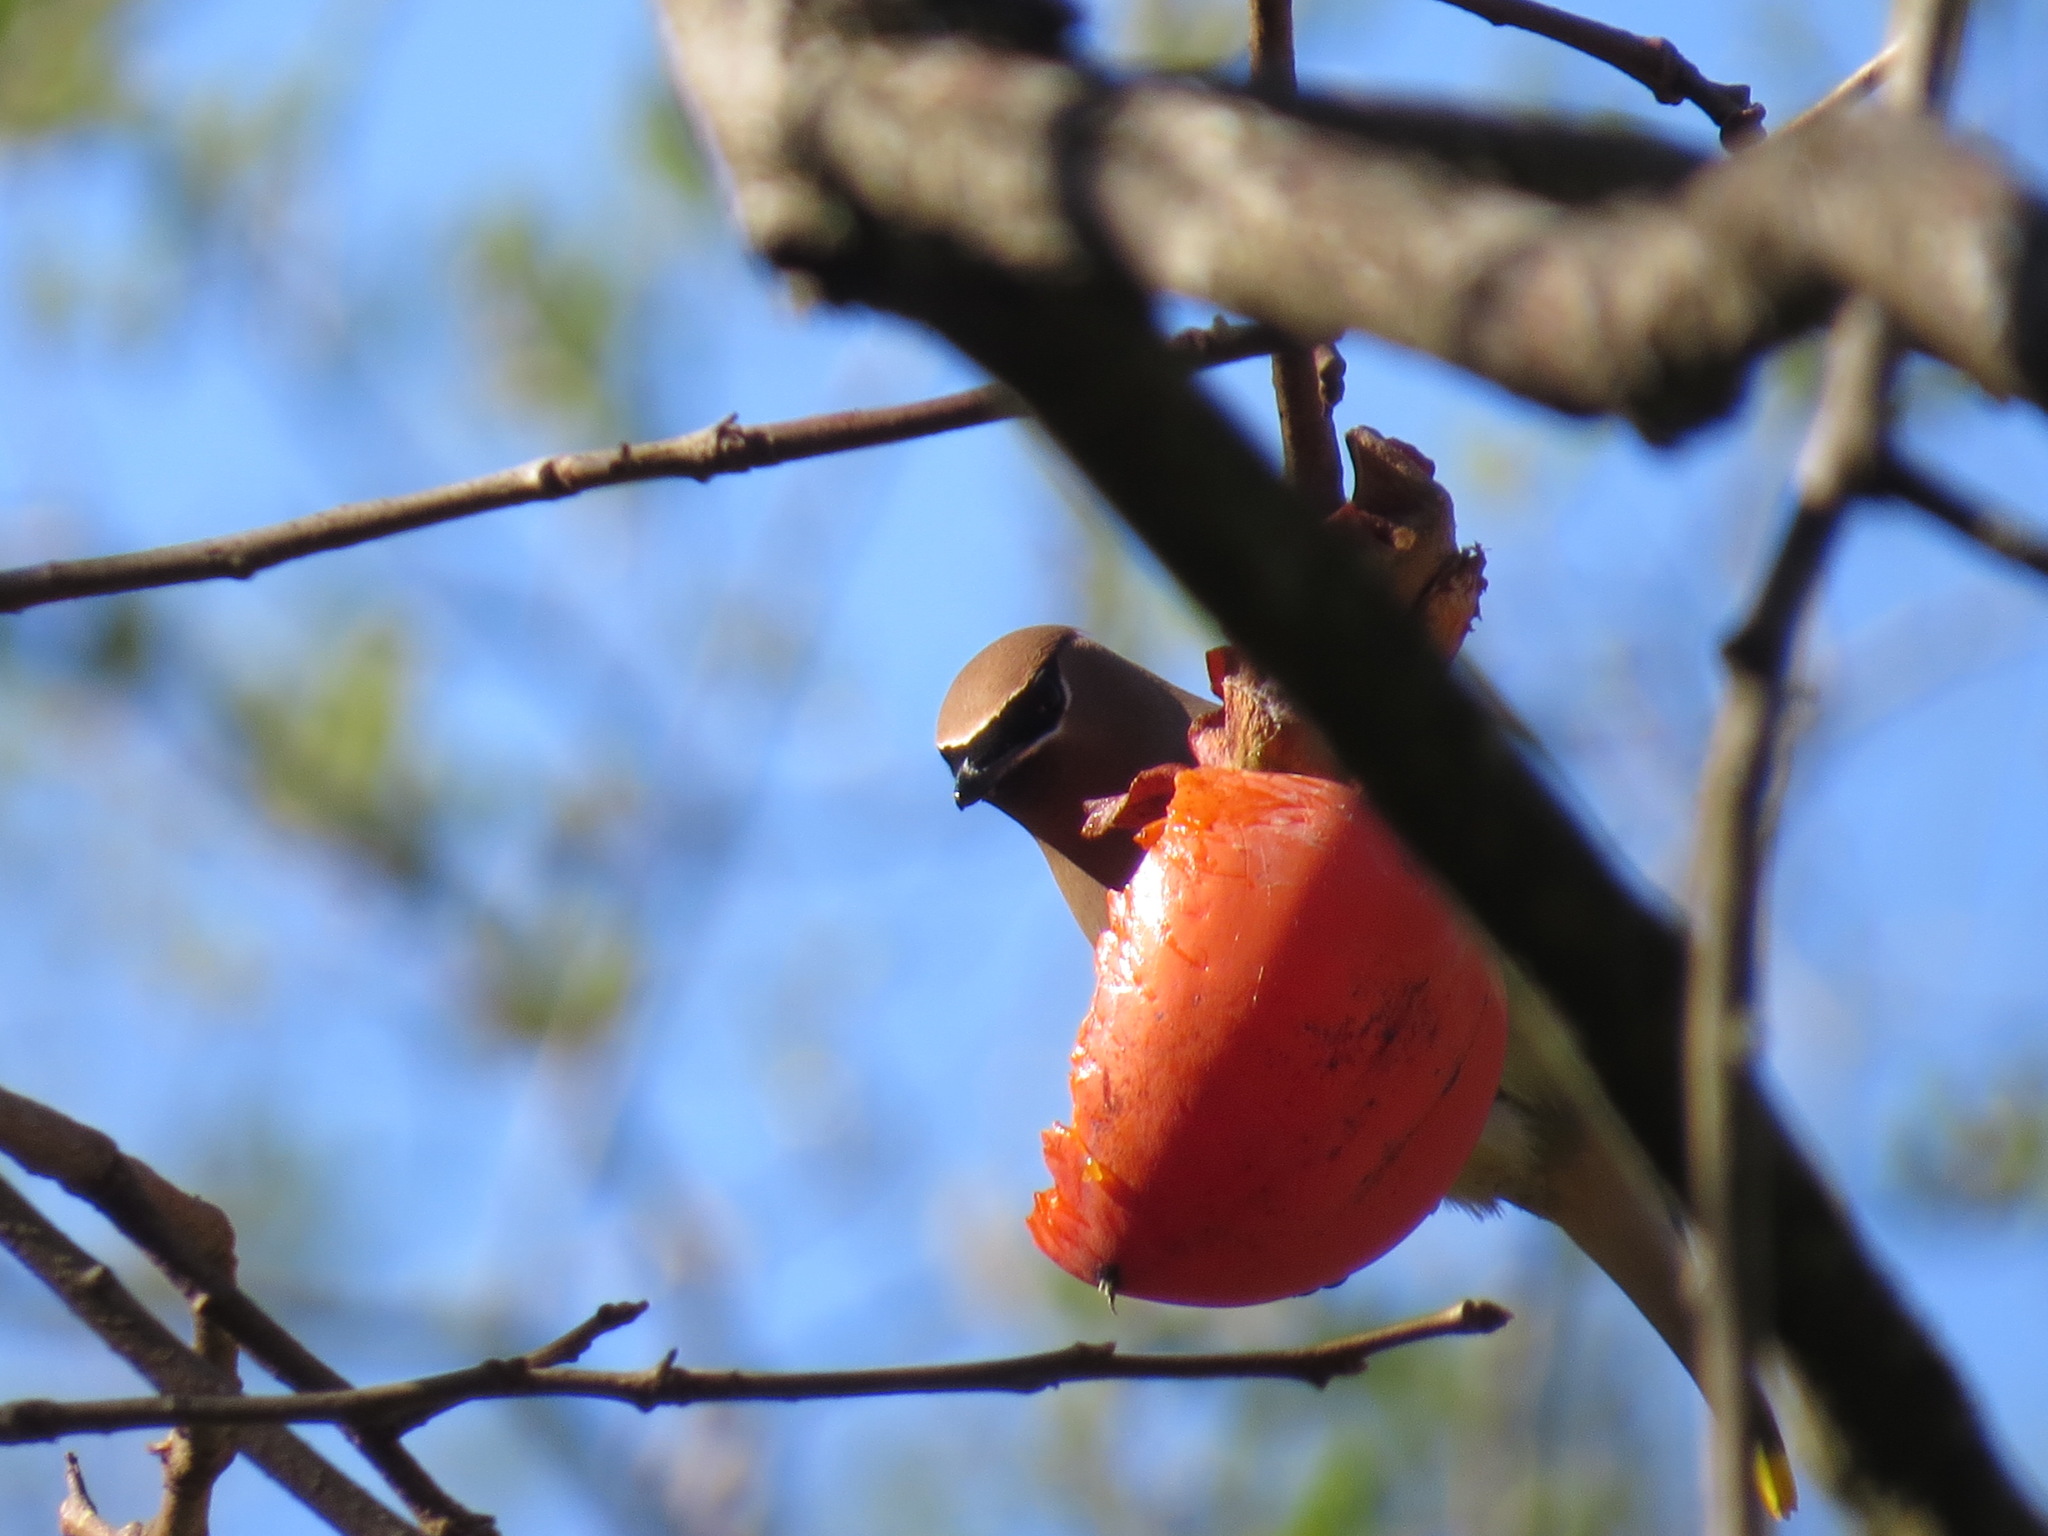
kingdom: Animalia
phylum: Chordata
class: Aves
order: Passeriformes
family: Bombycillidae
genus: Bombycilla
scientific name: Bombycilla cedrorum
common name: Cedar waxwing
